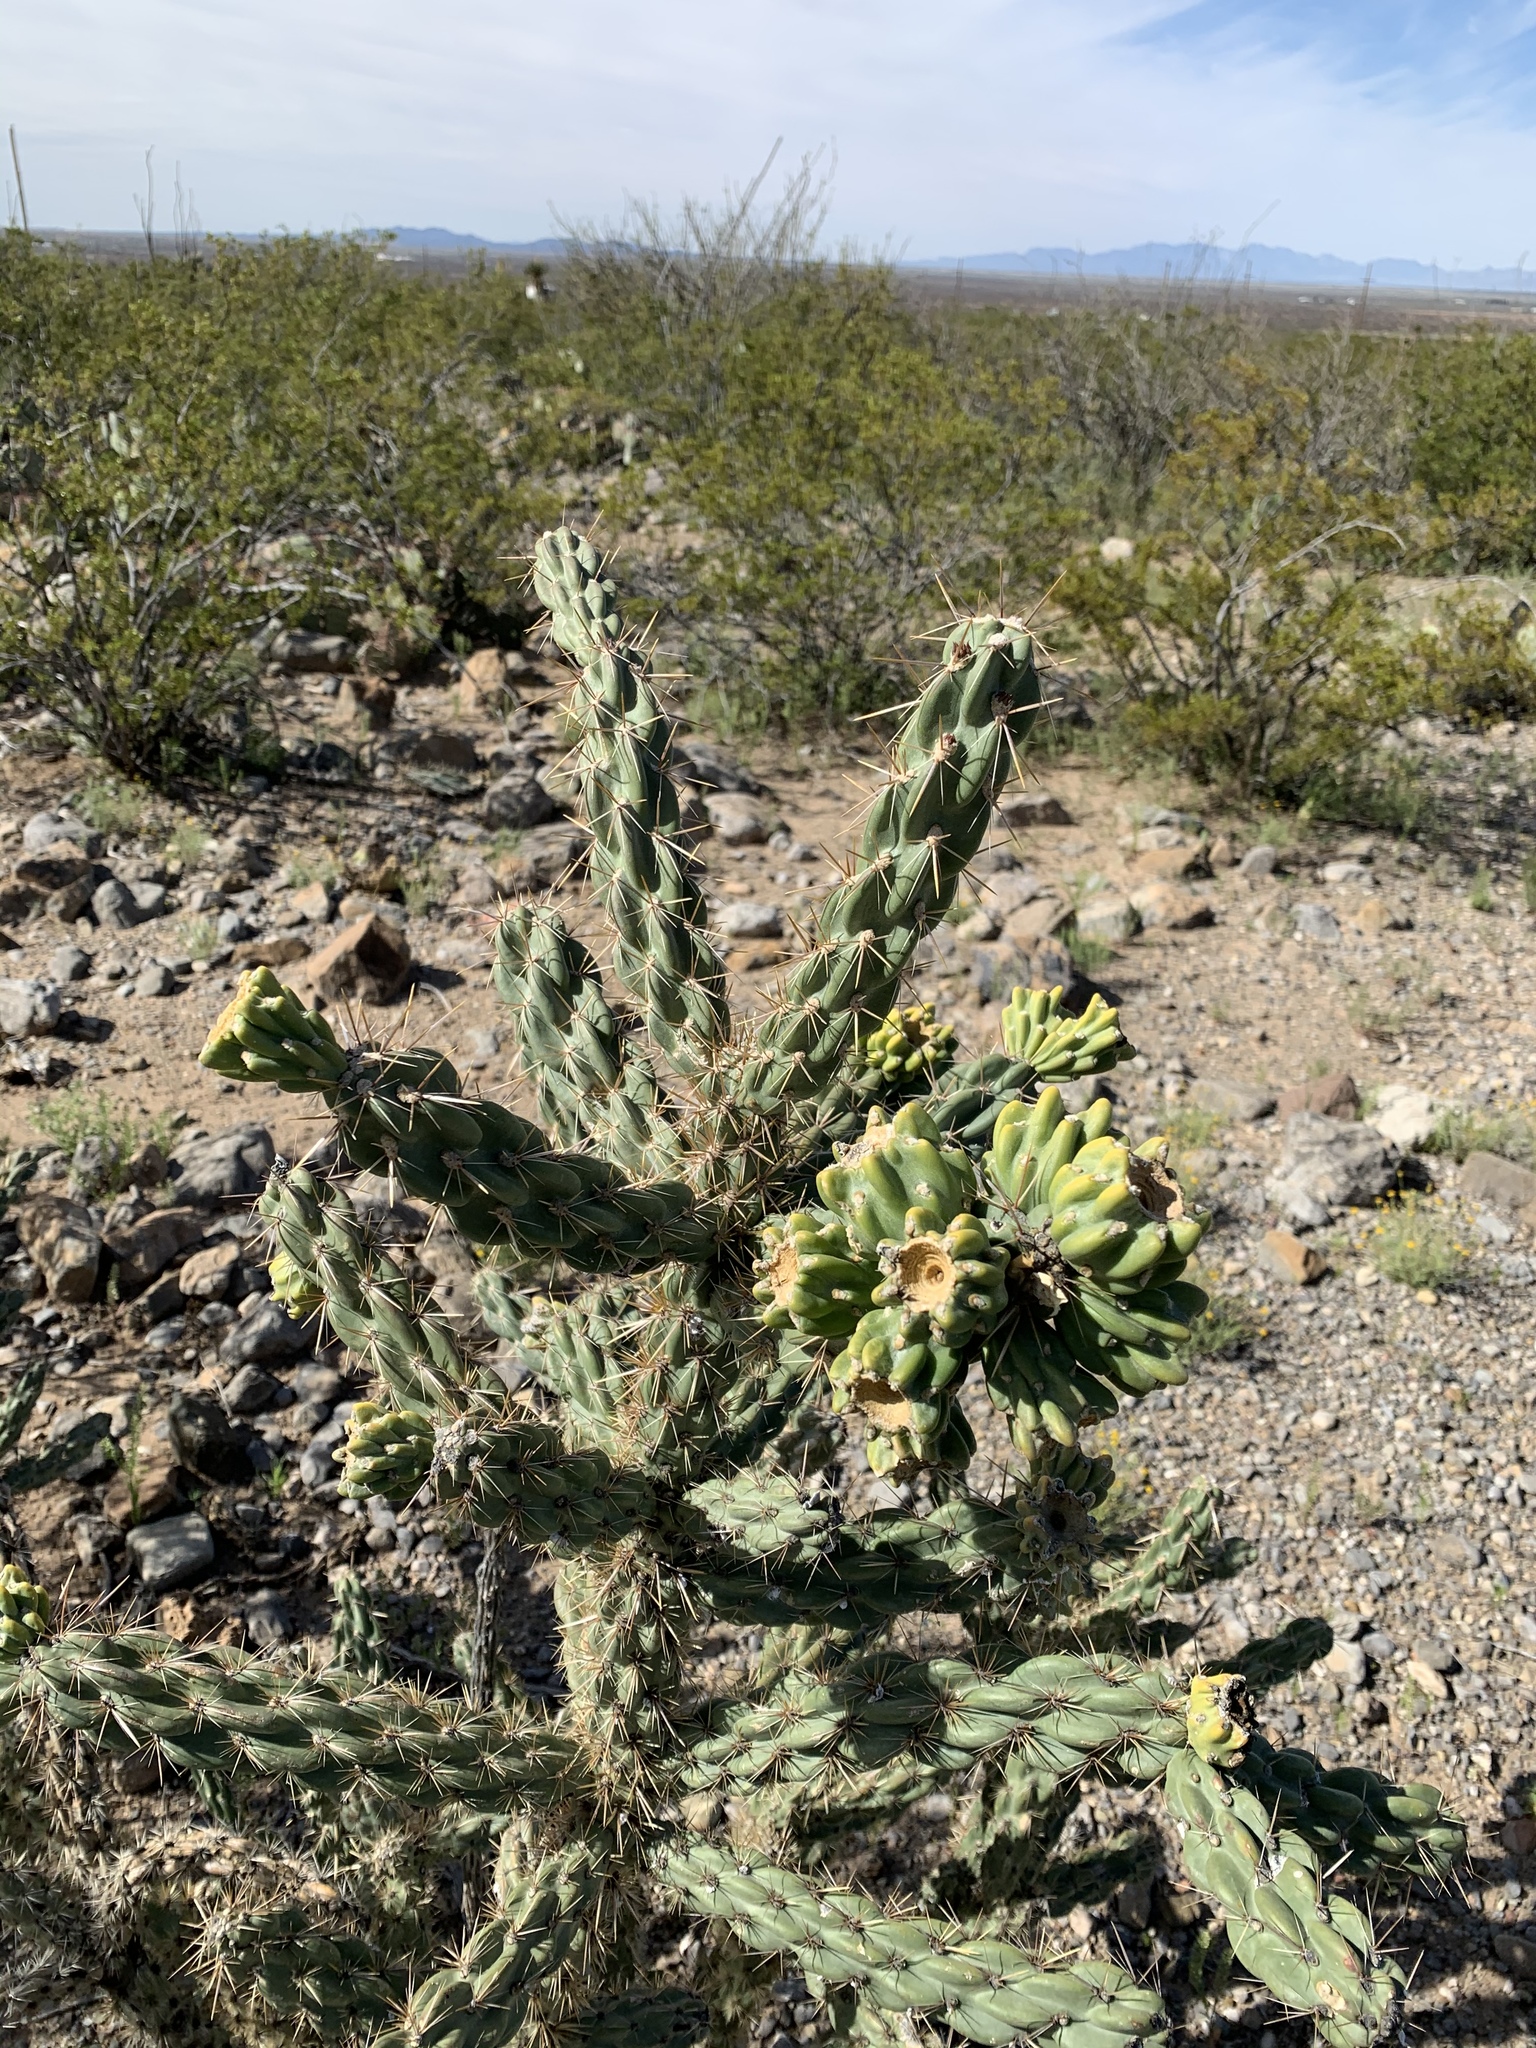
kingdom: Plantae
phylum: Tracheophyta
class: Magnoliopsida
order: Caryophyllales
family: Cactaceae
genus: Cylindropuntia
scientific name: Cylindropuntia imbricata
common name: Candelabrum cactus
